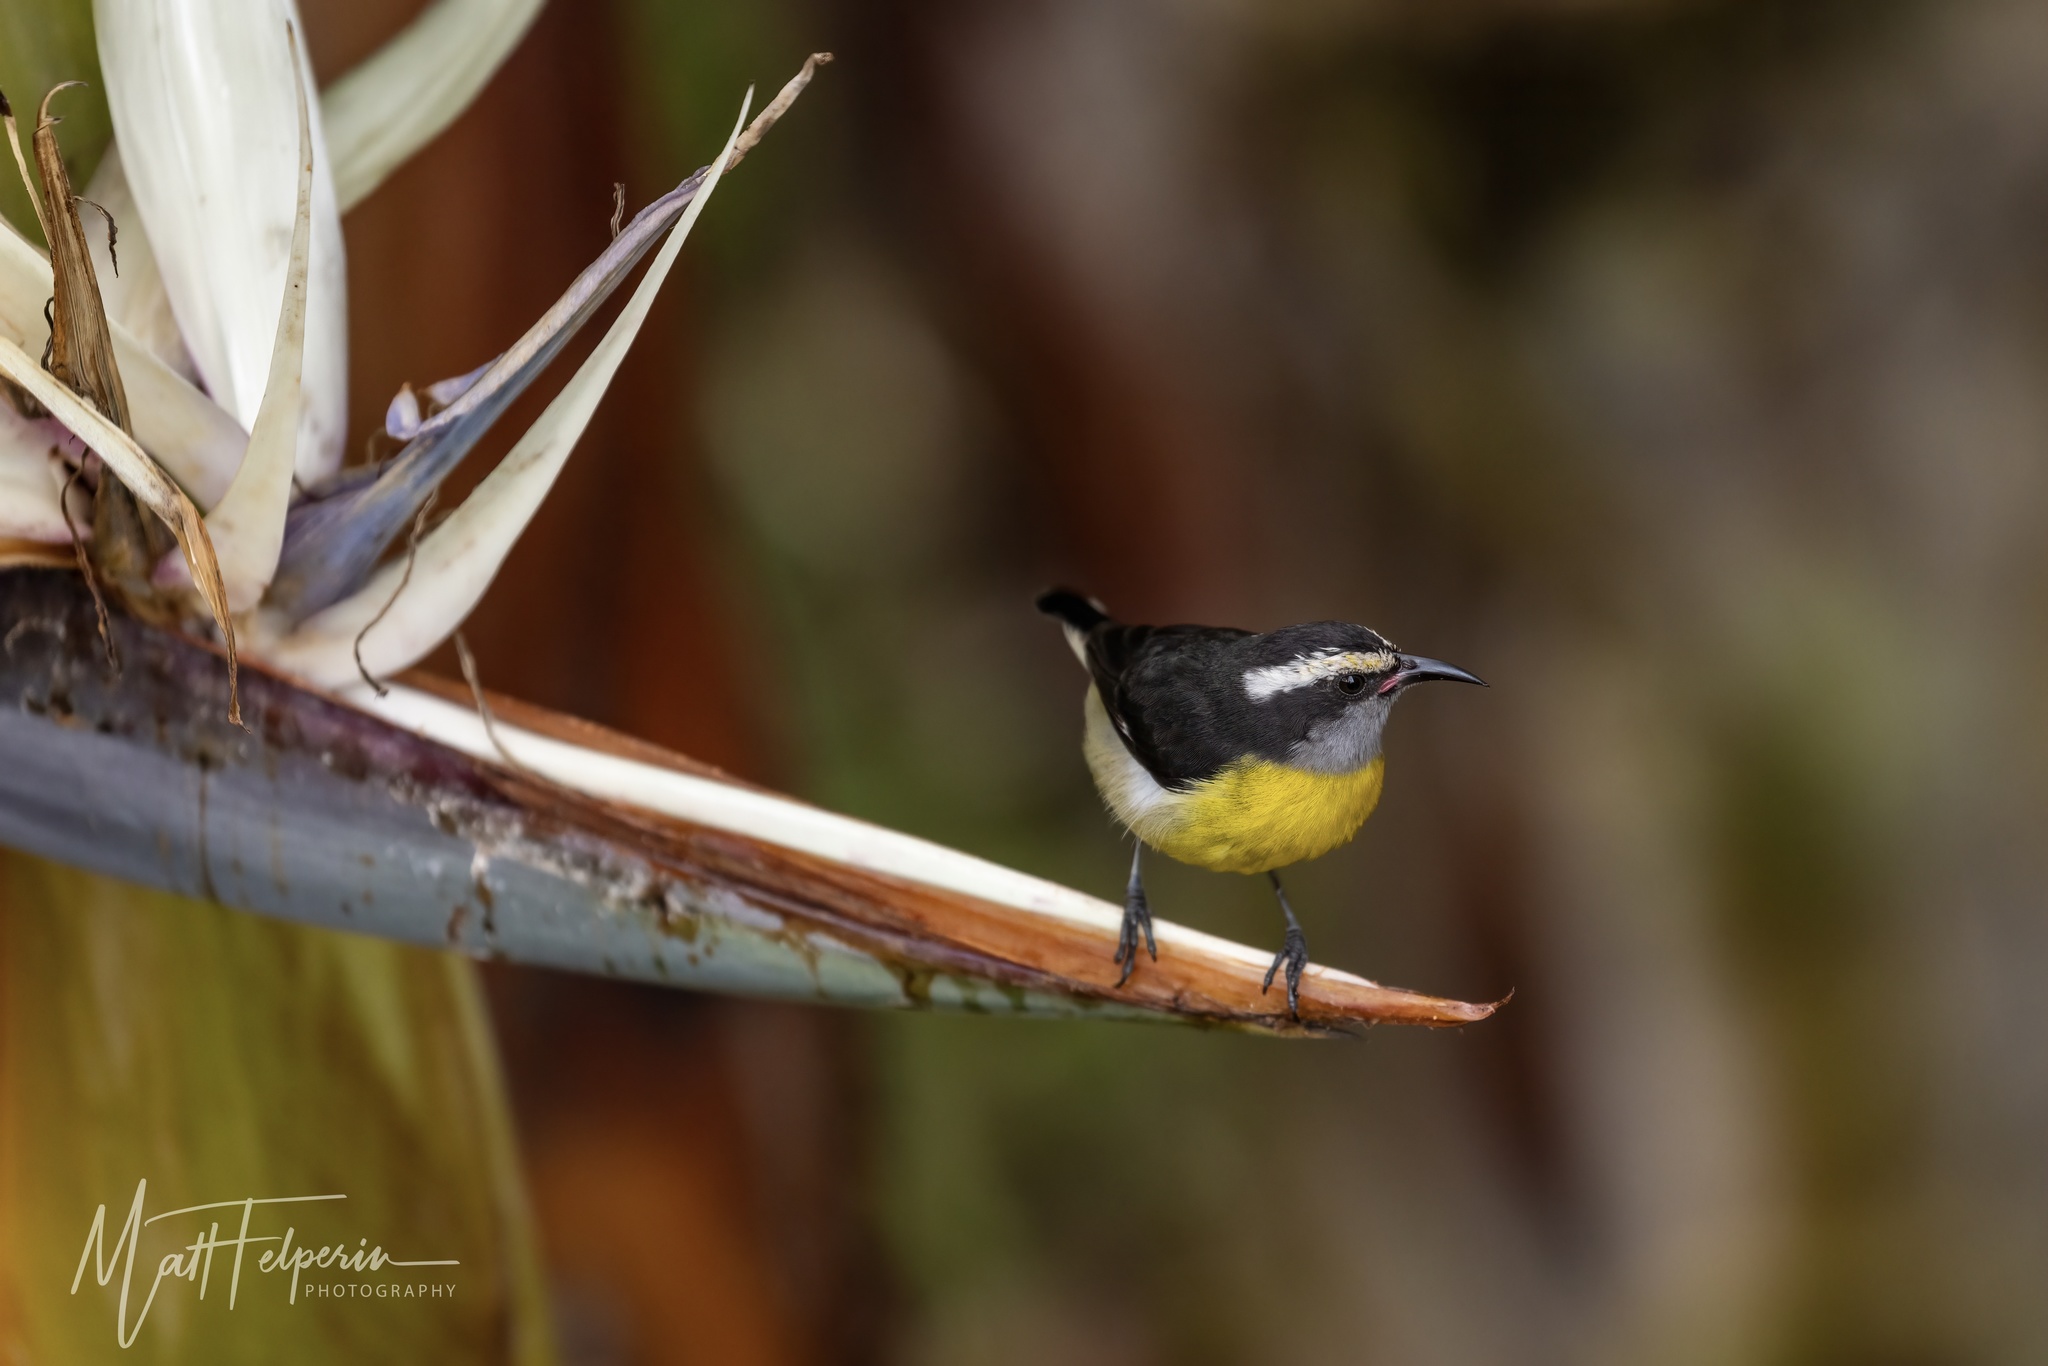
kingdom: Animalia
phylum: Chordata
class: Aves
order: Passeriformes
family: Thraupidae
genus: Coereba
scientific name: Coereba flaveola
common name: Bananaquit
